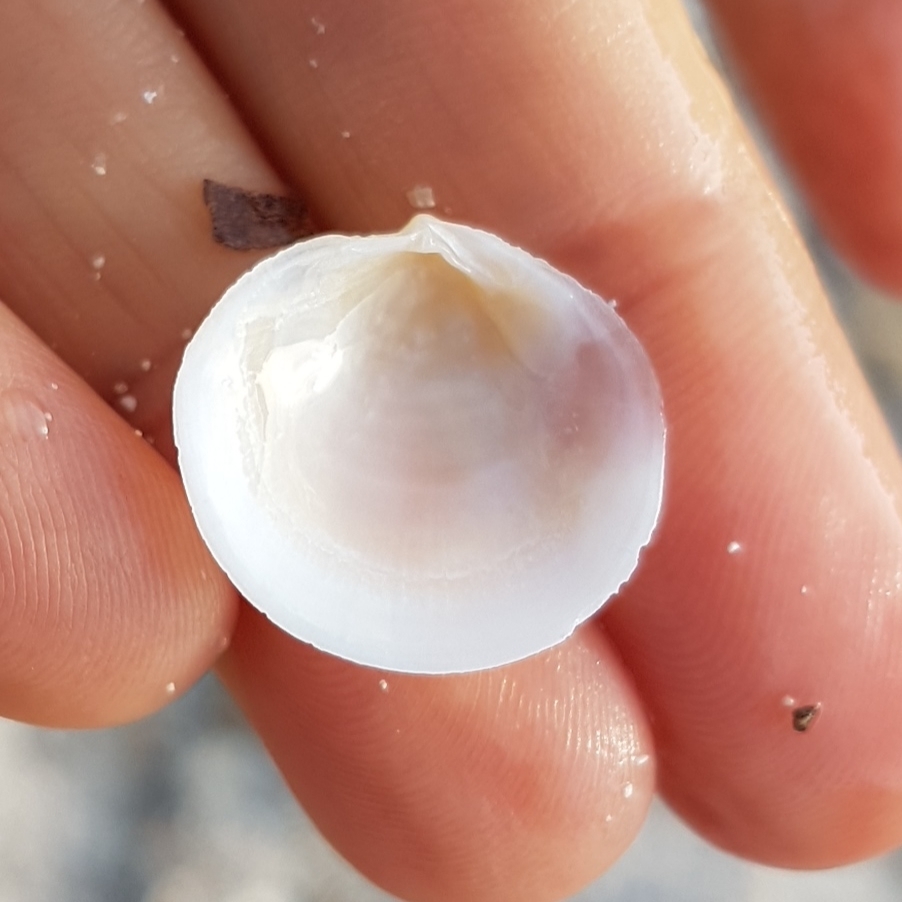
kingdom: Animalia
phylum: Mollusca
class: Bivalvia
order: Lucinida
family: Lucinidae
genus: Loripes
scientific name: Loripes orbiculatus
